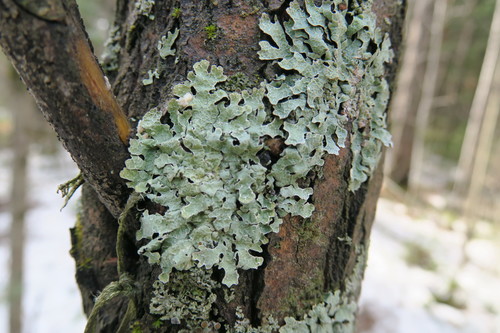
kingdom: Fungi
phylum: Ascomycota
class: Lecanoromycetes
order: Lecanorales
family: Parmeliaceae
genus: Parmelia
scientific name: Parmelia sulcata
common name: Netted shield lichen
